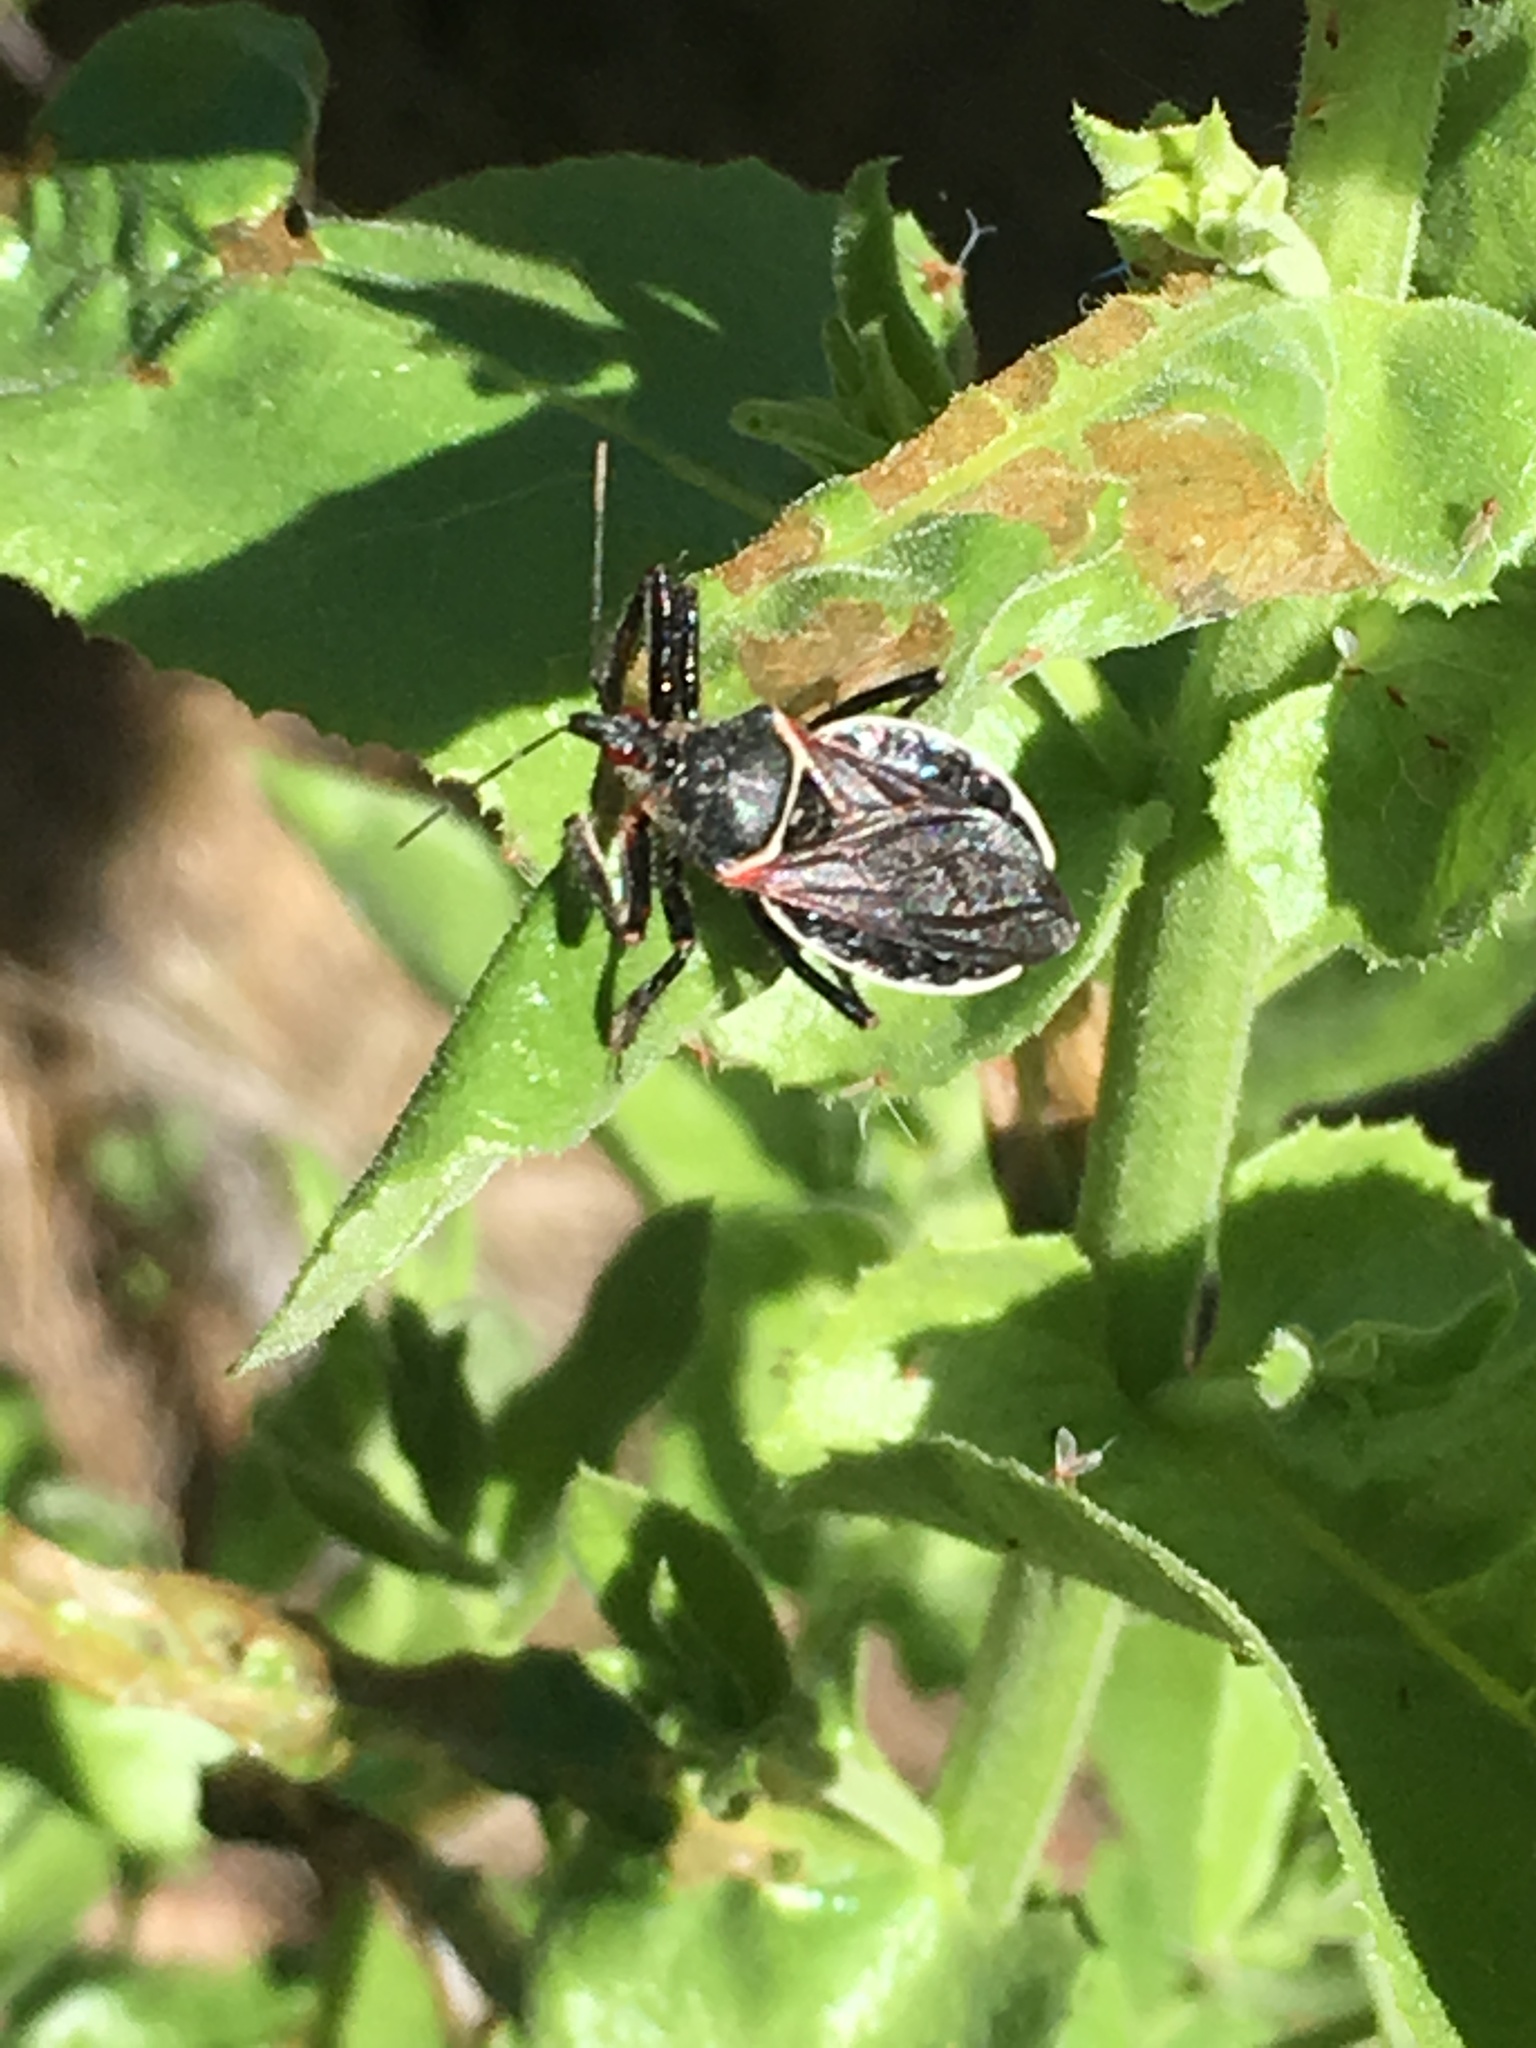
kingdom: Animalia
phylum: Arthropoda
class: Insecta
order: Hemiptera
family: Reduviidae
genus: Apiomerus
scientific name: Apiomerus californicus
